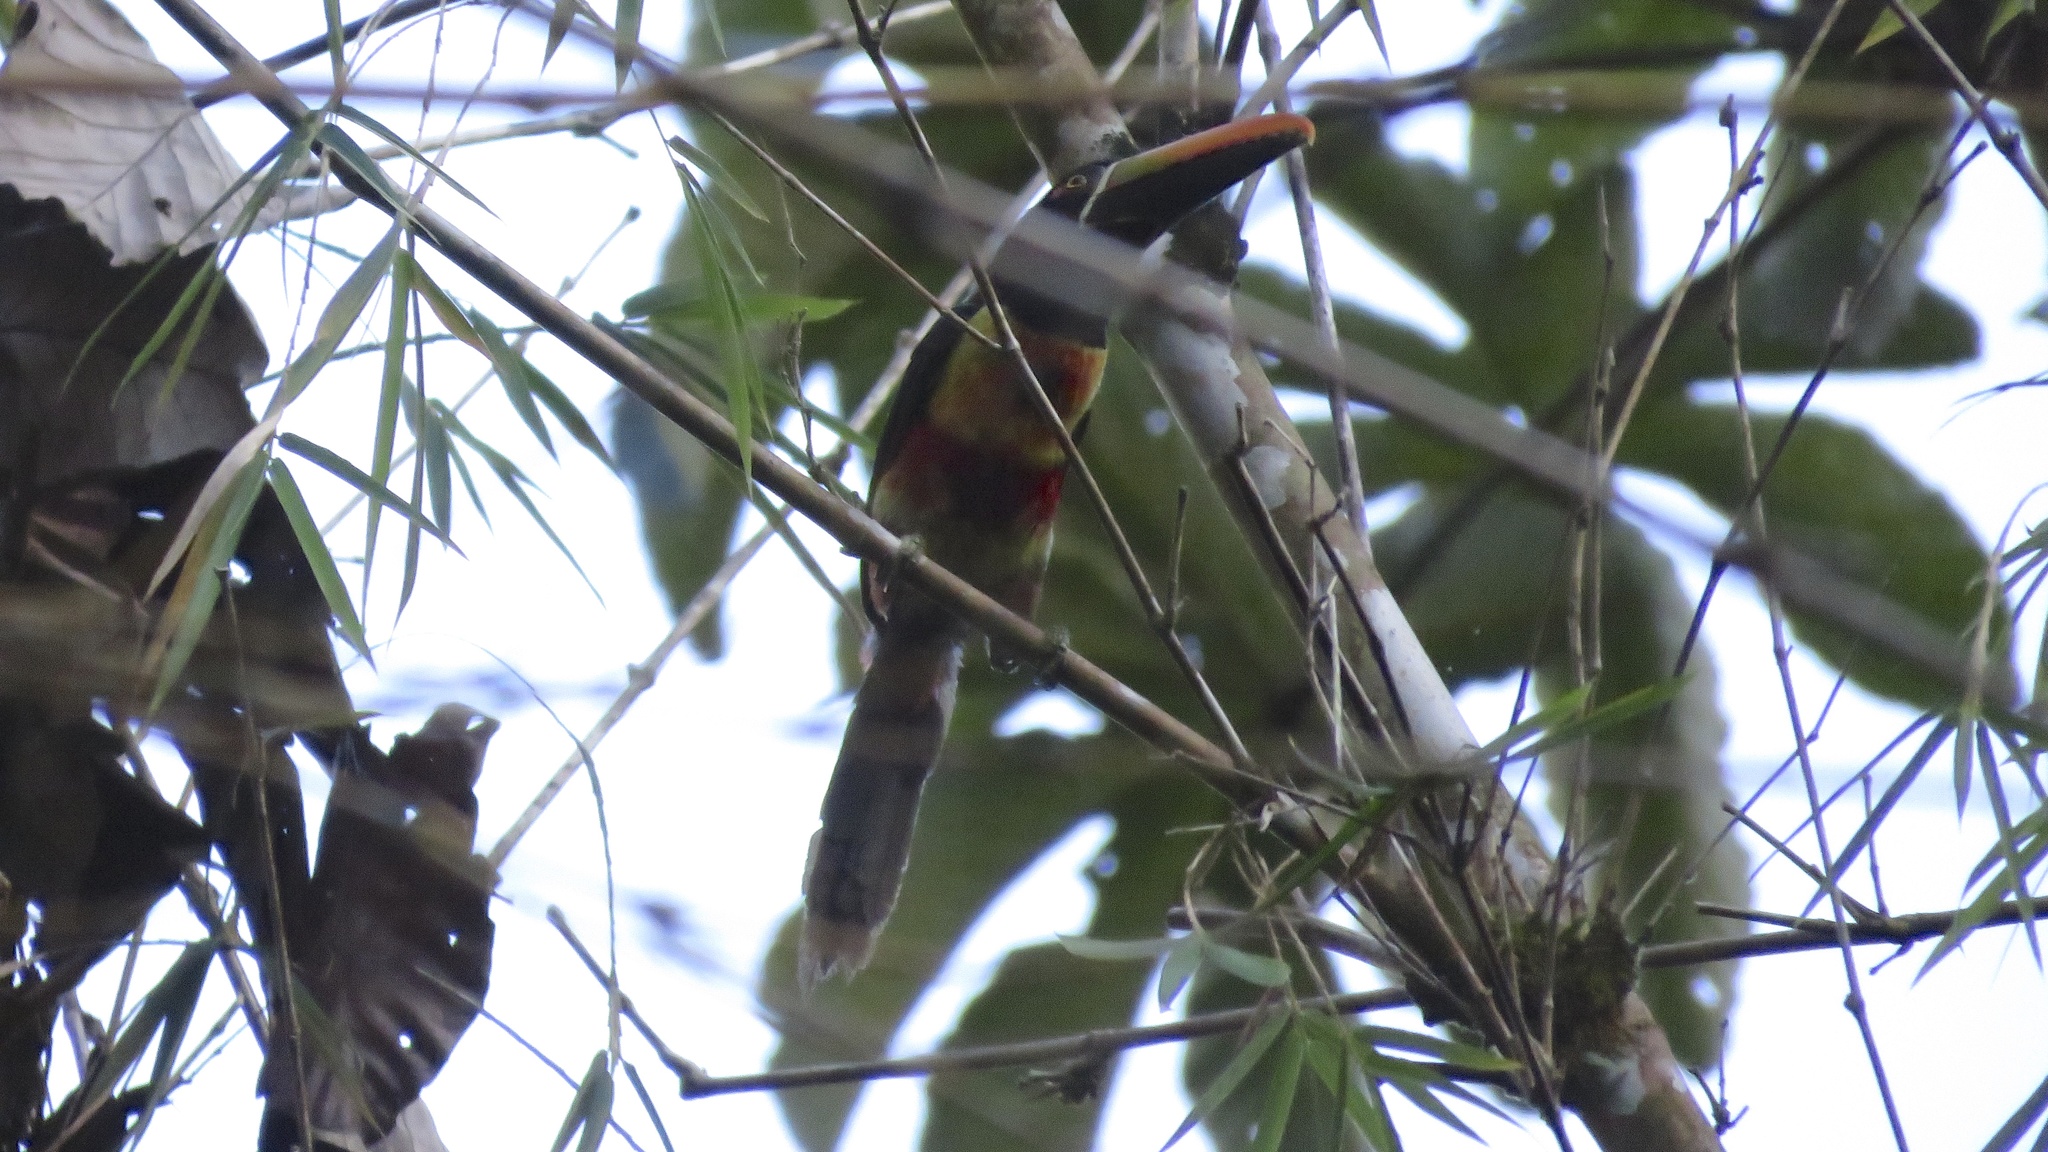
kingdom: Animalia
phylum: Chordata
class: Aves
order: Piciformes
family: Ramphastidae
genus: Pteroglossus
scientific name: Pteroglossus frantzii
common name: Fiery-billed aracari
